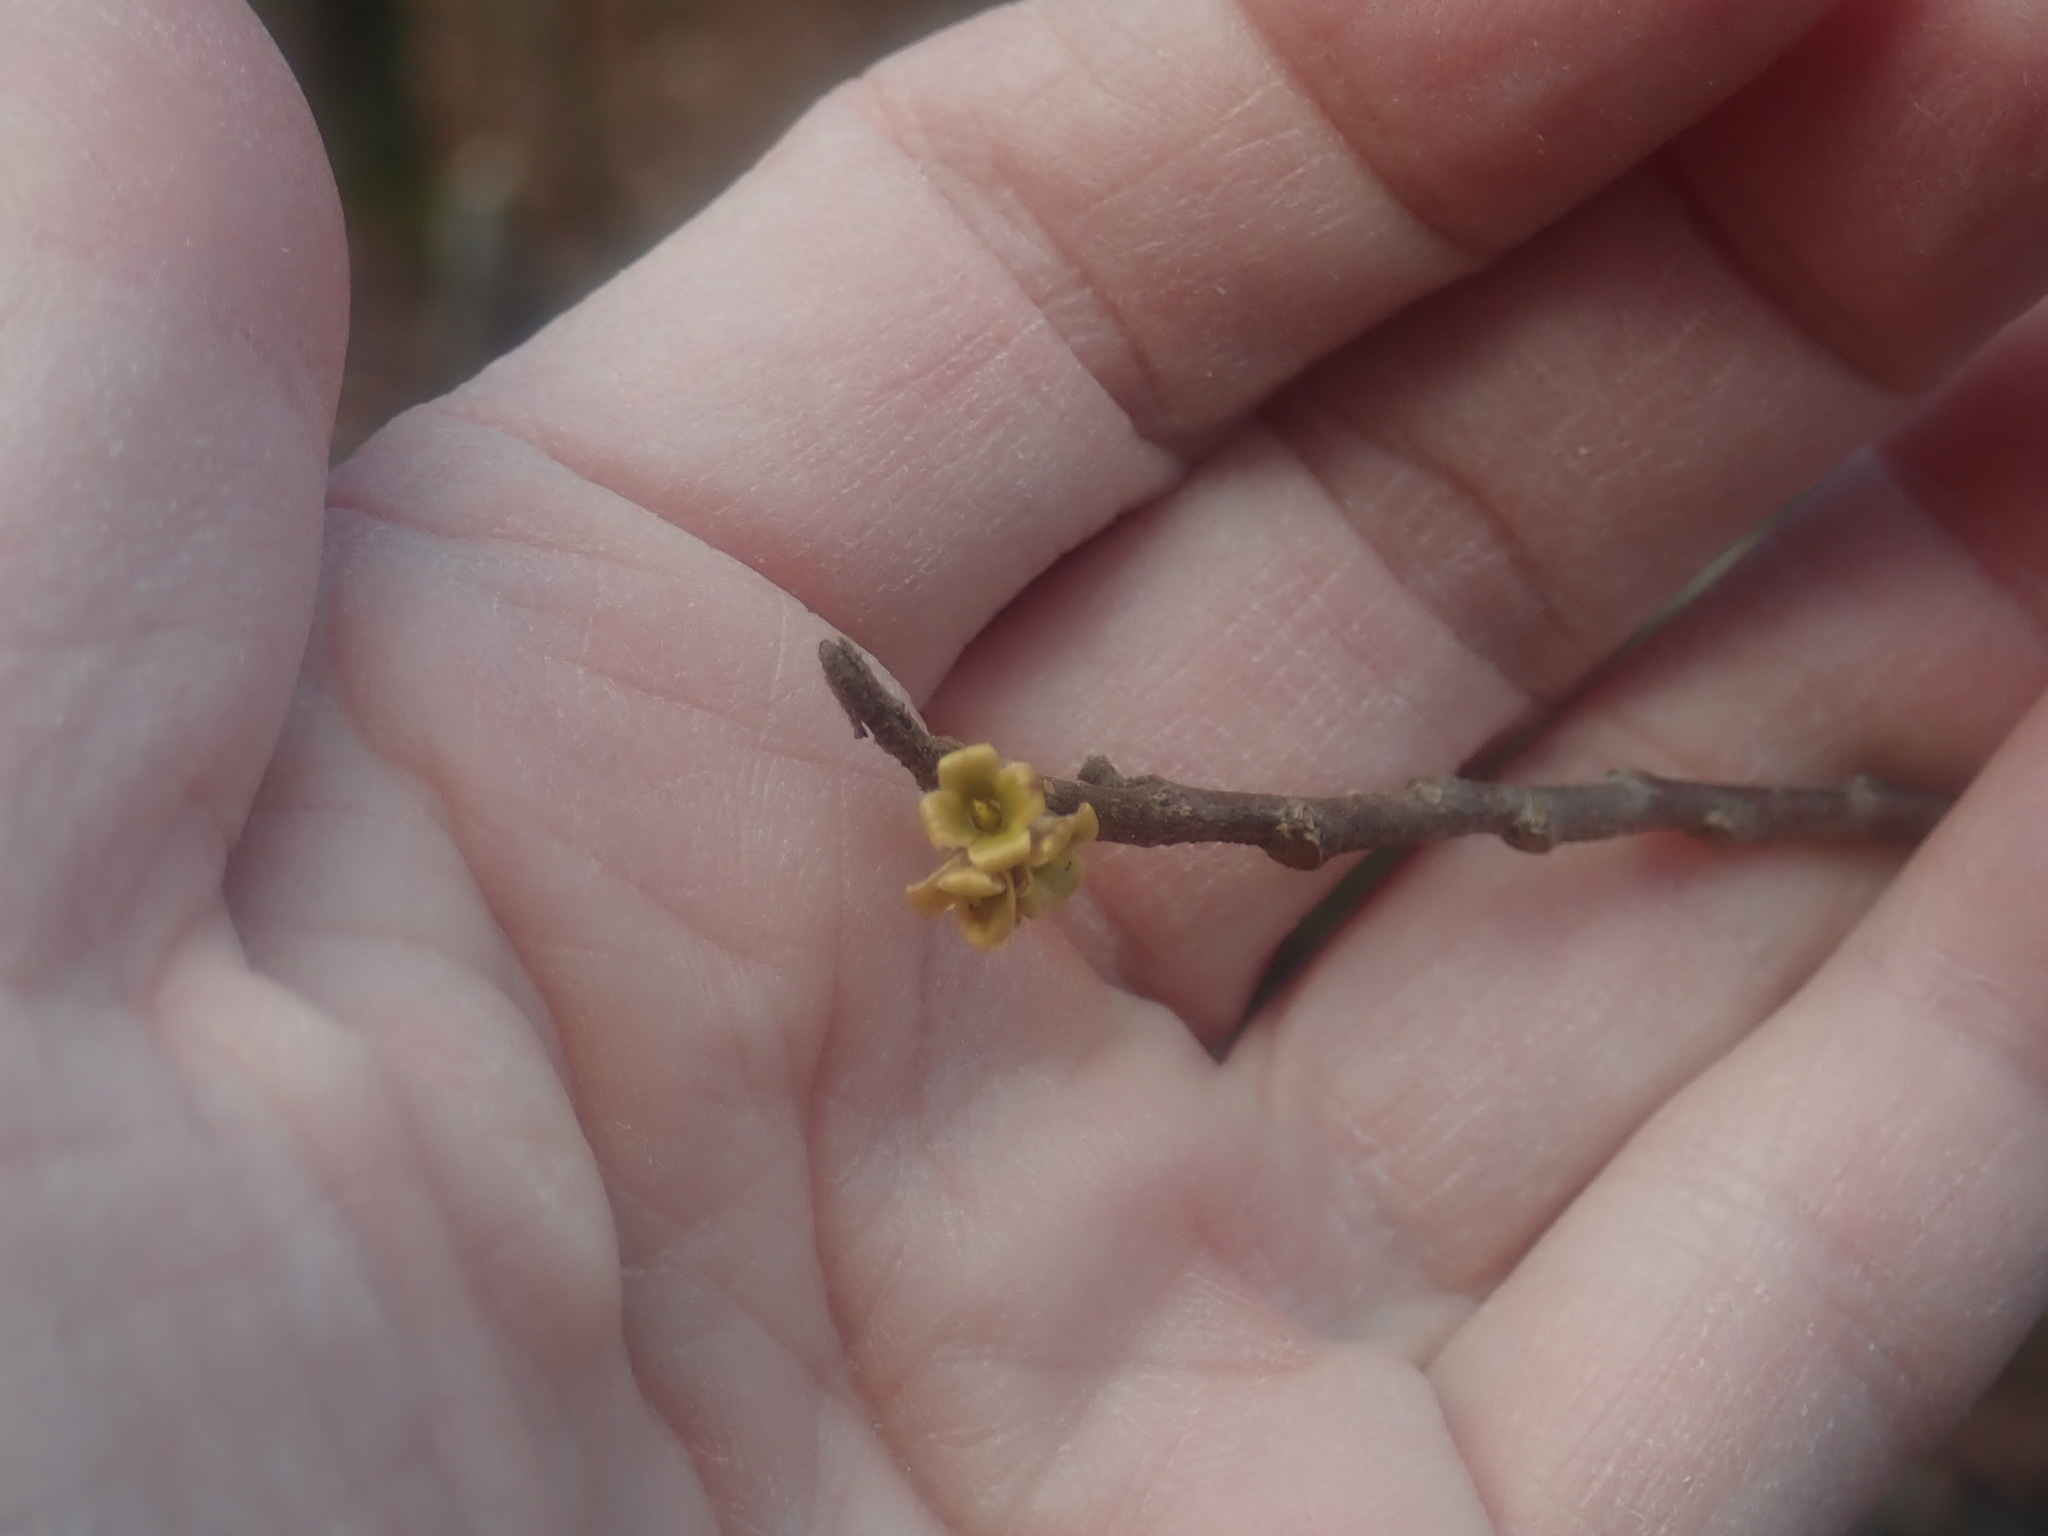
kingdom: Plantae
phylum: Tracheophyta
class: Magnoliopsida
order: Saxifragales
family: Hamamelidaceae
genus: Hamamelis
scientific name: Hamamelis virginiana
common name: Witch-hazel
